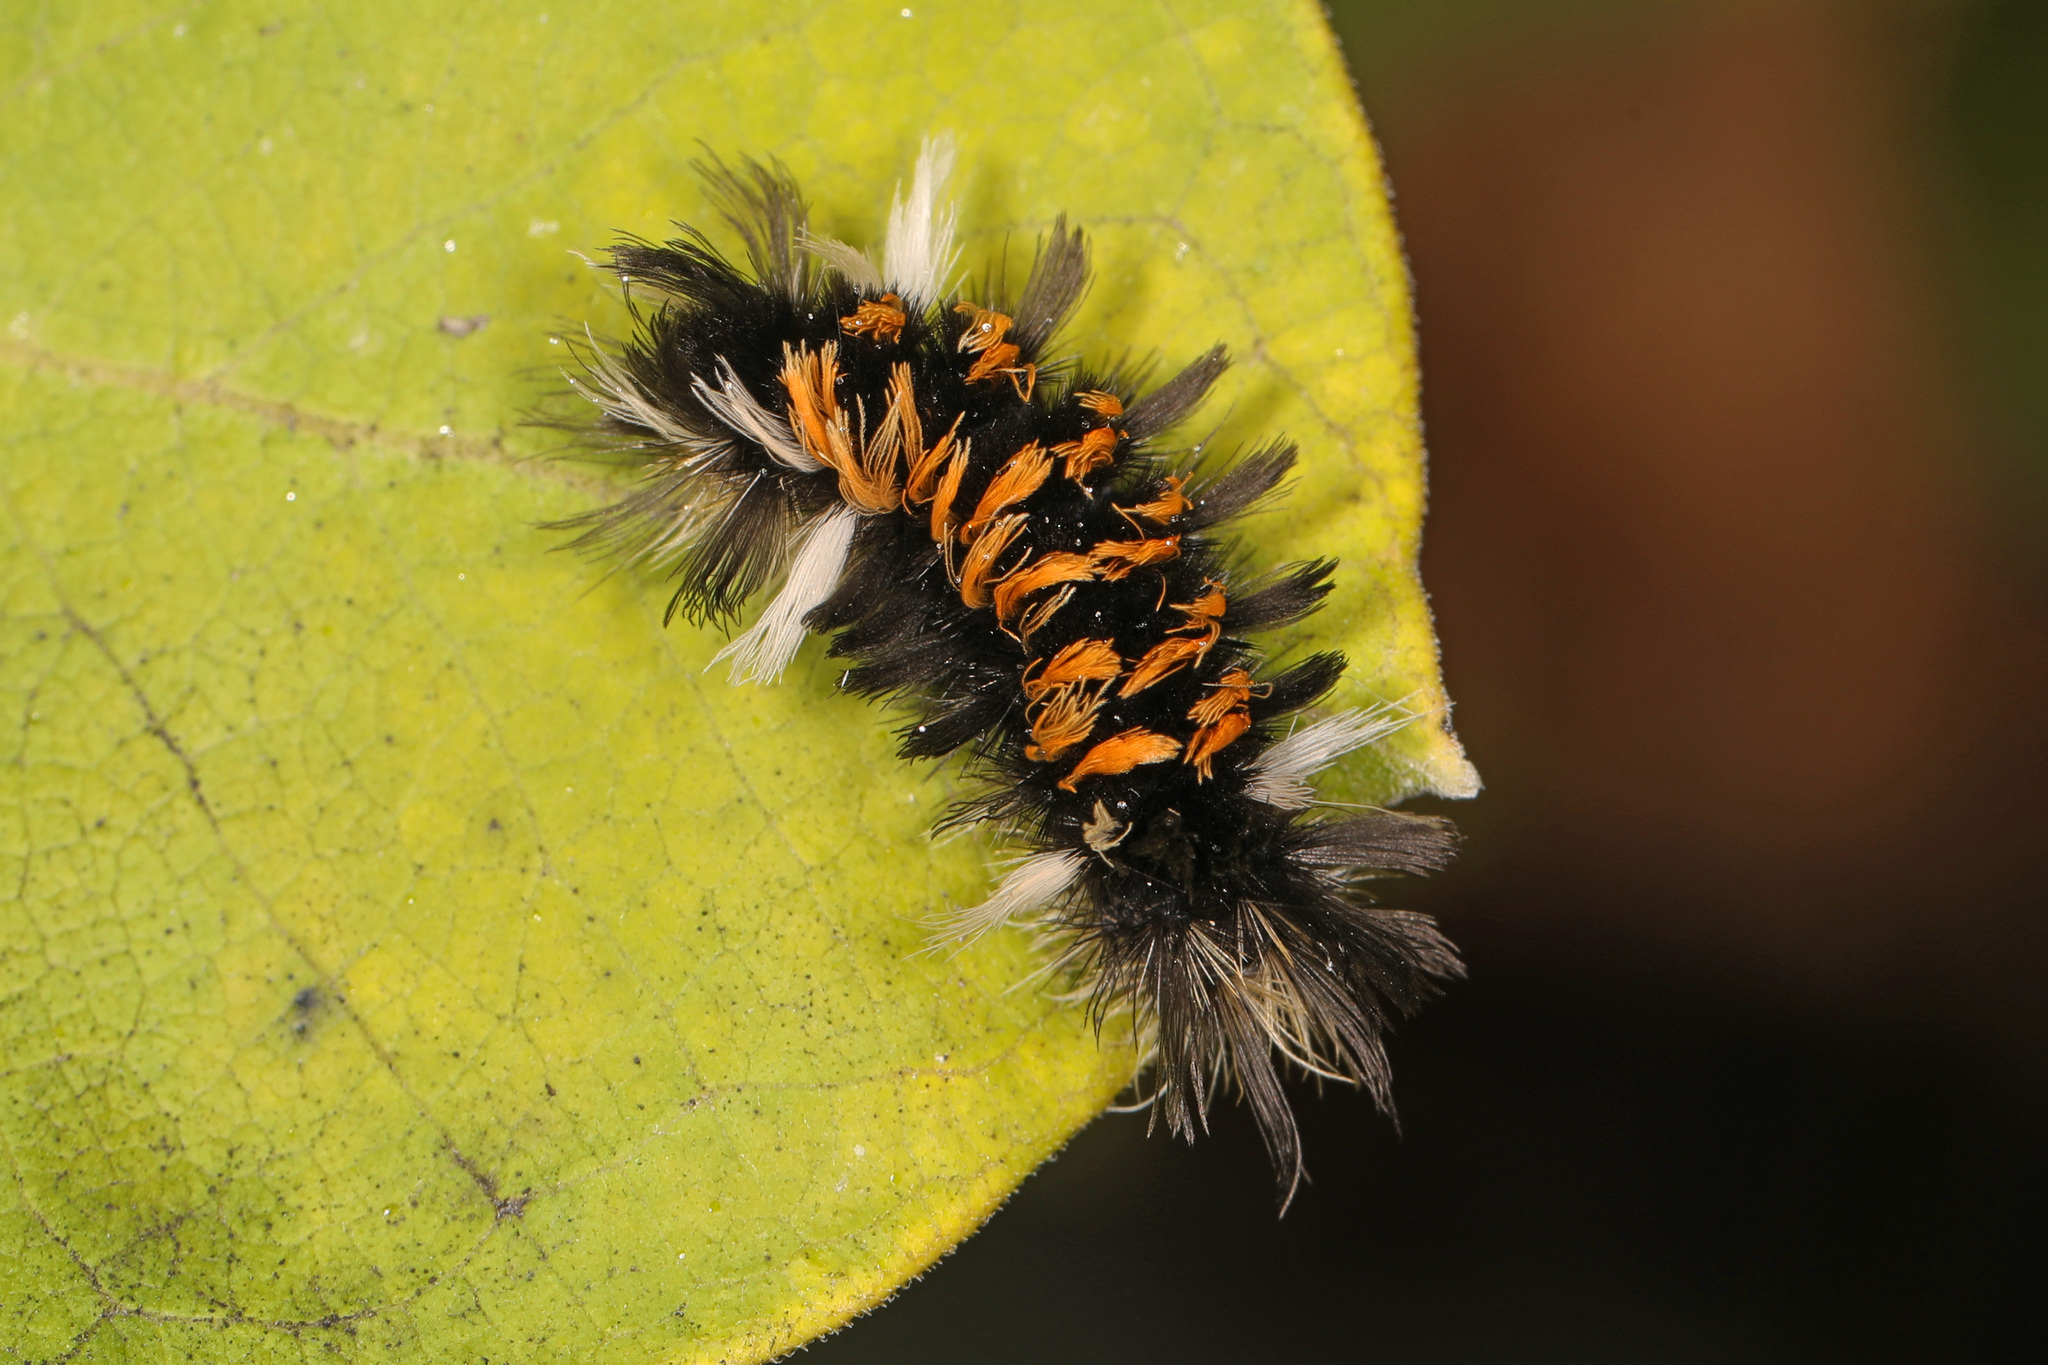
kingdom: Animalia
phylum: Arthropoda
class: Insecta
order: Lepidoptera
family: Erebidae
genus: Euchaetes
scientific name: Euchaetes egle
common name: Milkweed tussock moth
